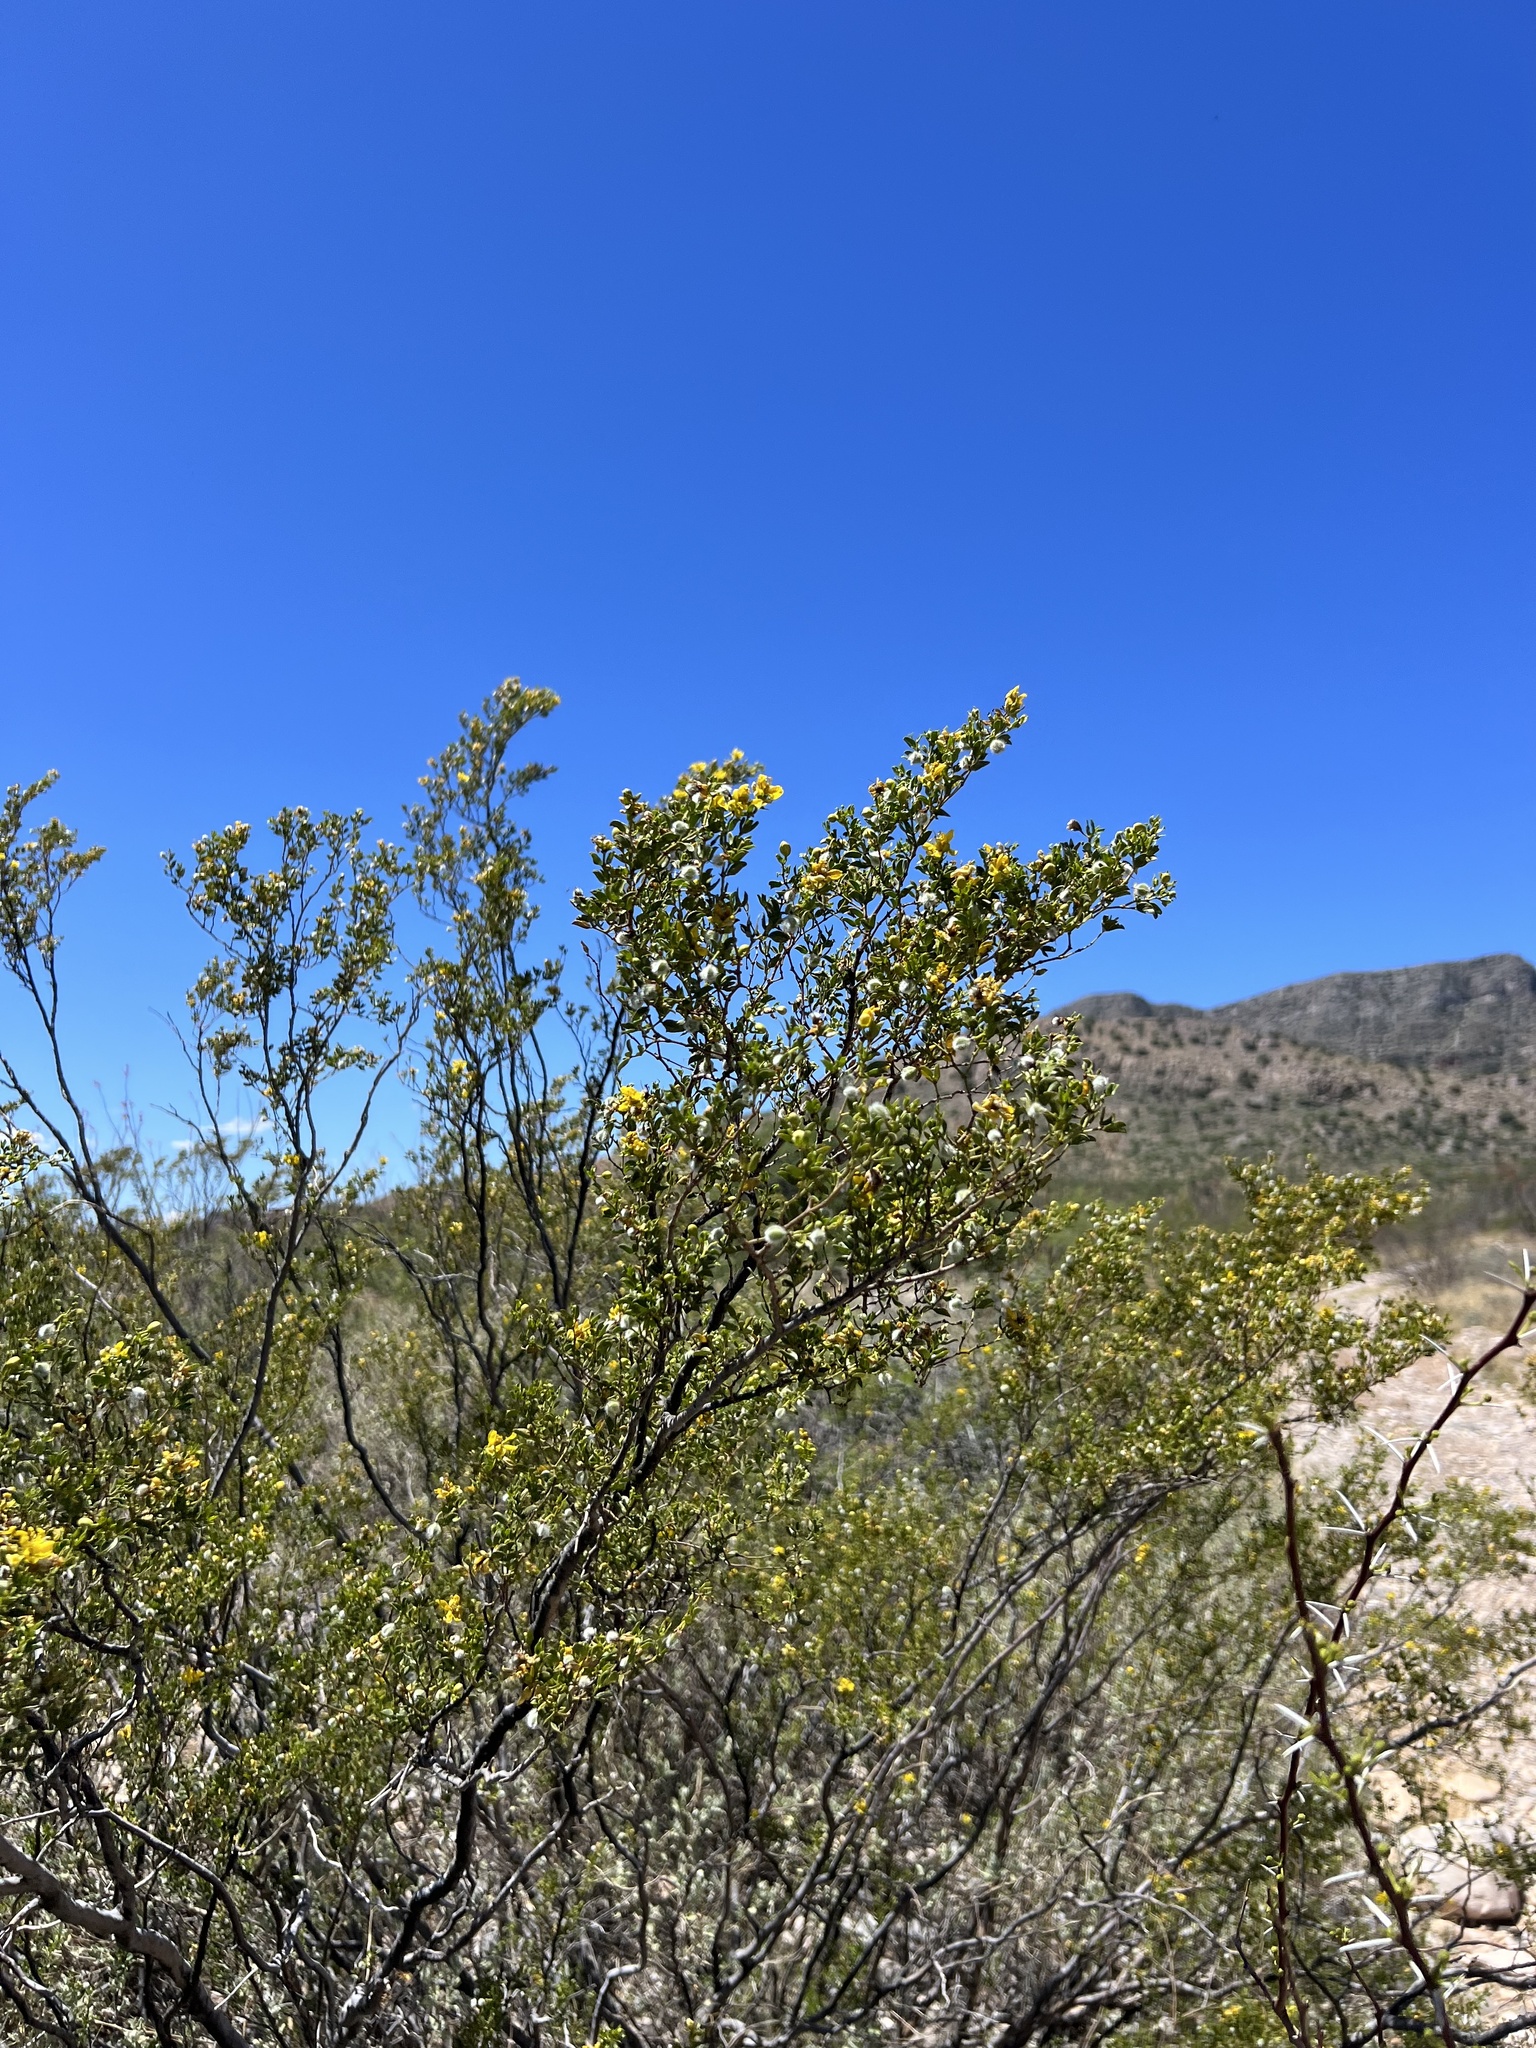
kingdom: Plantae
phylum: Tracheophyta
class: Magnoliopsida
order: Zygophyllales
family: Zygophyllaceae
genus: Larrea
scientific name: Larrea tridentata
